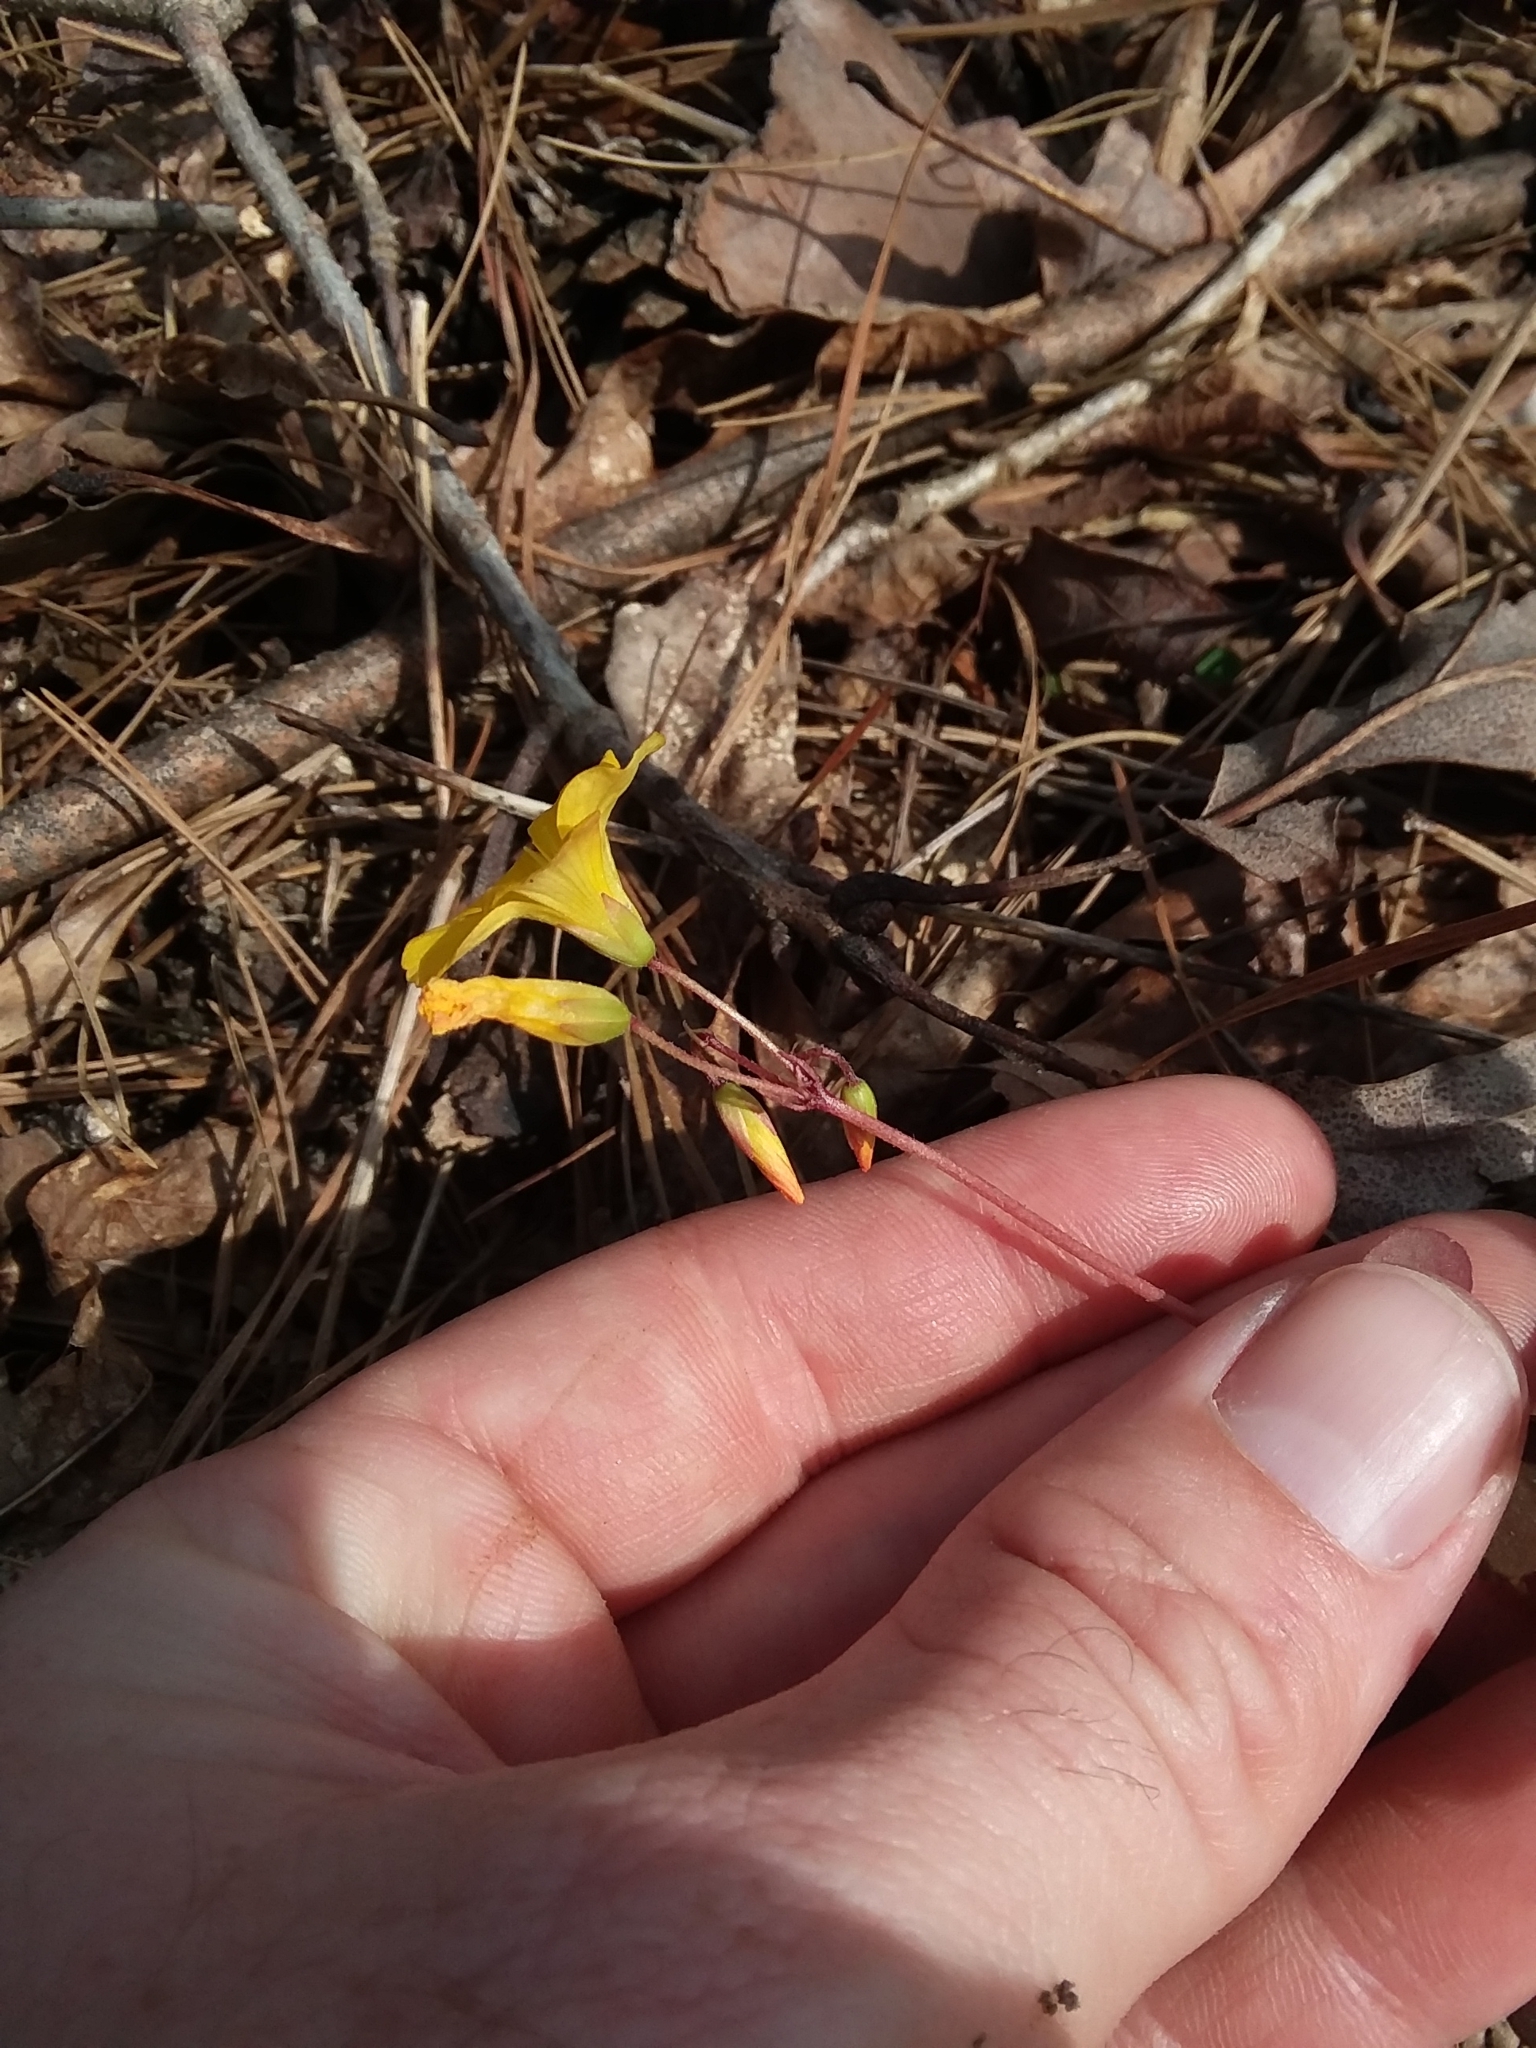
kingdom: Plantae
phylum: Tracheophyta
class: Magnoliopsida
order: Oxalidales
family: Oxalidaceae
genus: Oxalis
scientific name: Oxalis colorea
